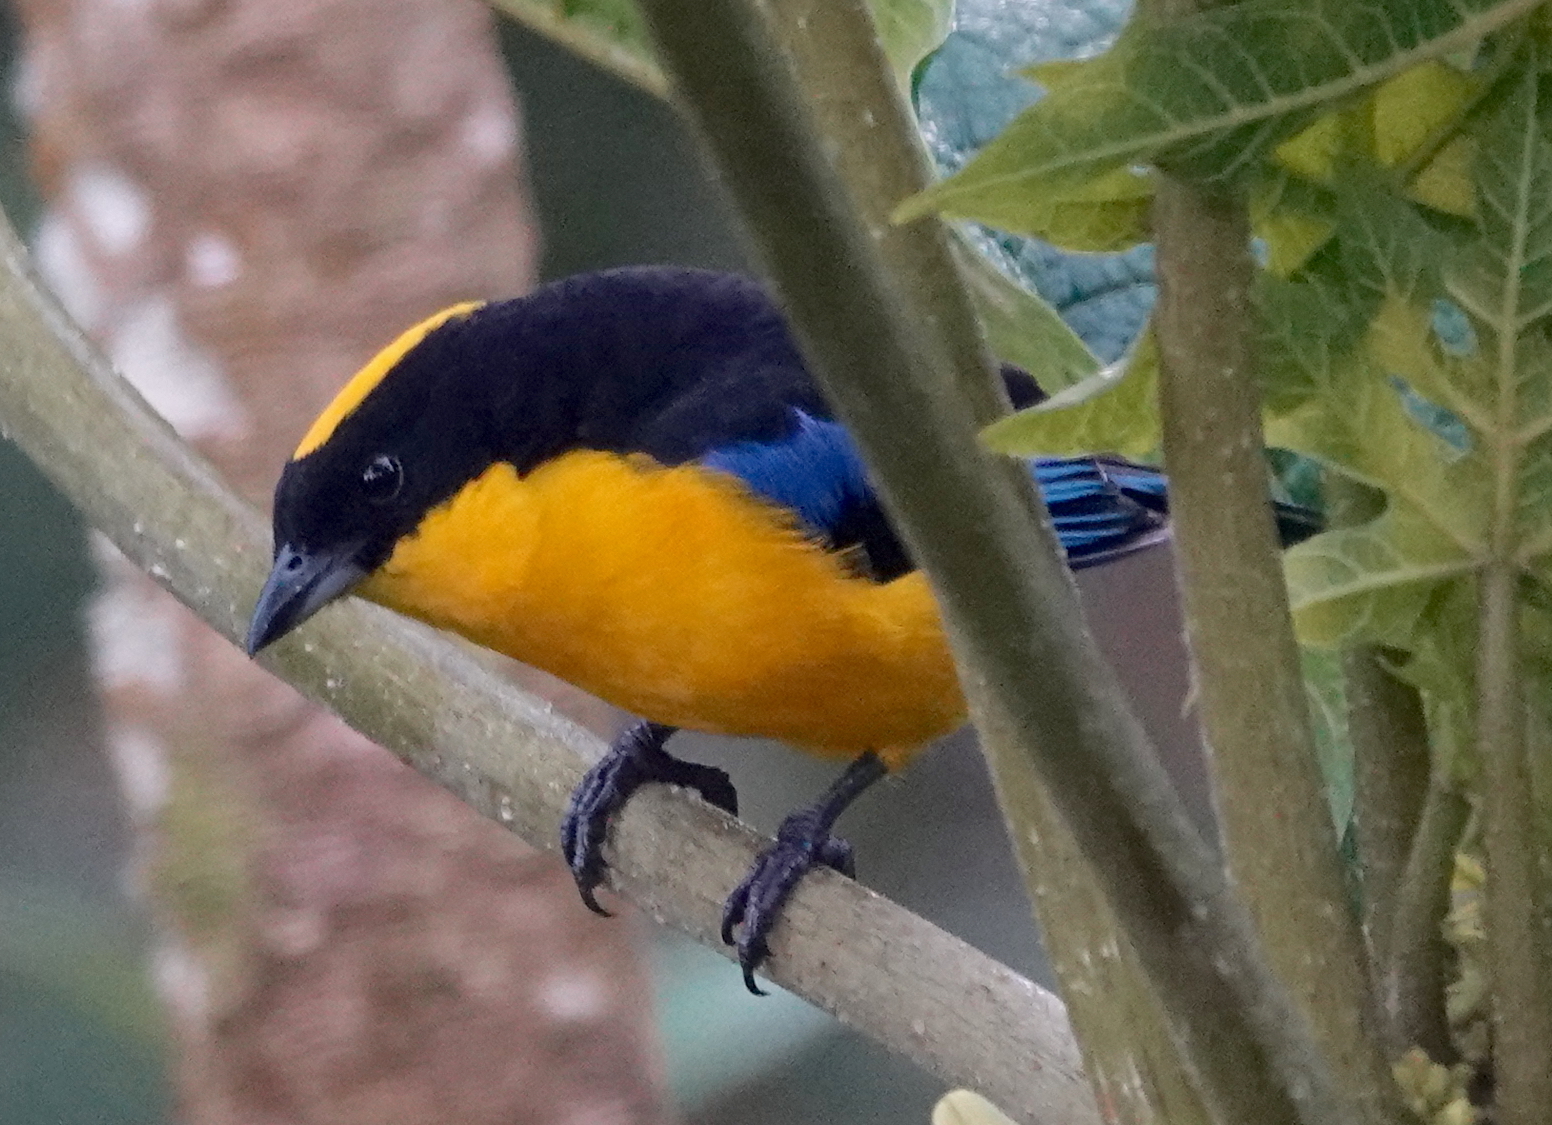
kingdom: Animalia
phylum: Chordata
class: Aves
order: Passeriformes
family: Thraupidae
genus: Anisognathus
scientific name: Anisognathus somptuosus
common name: Blue-winged mountain-tanager
